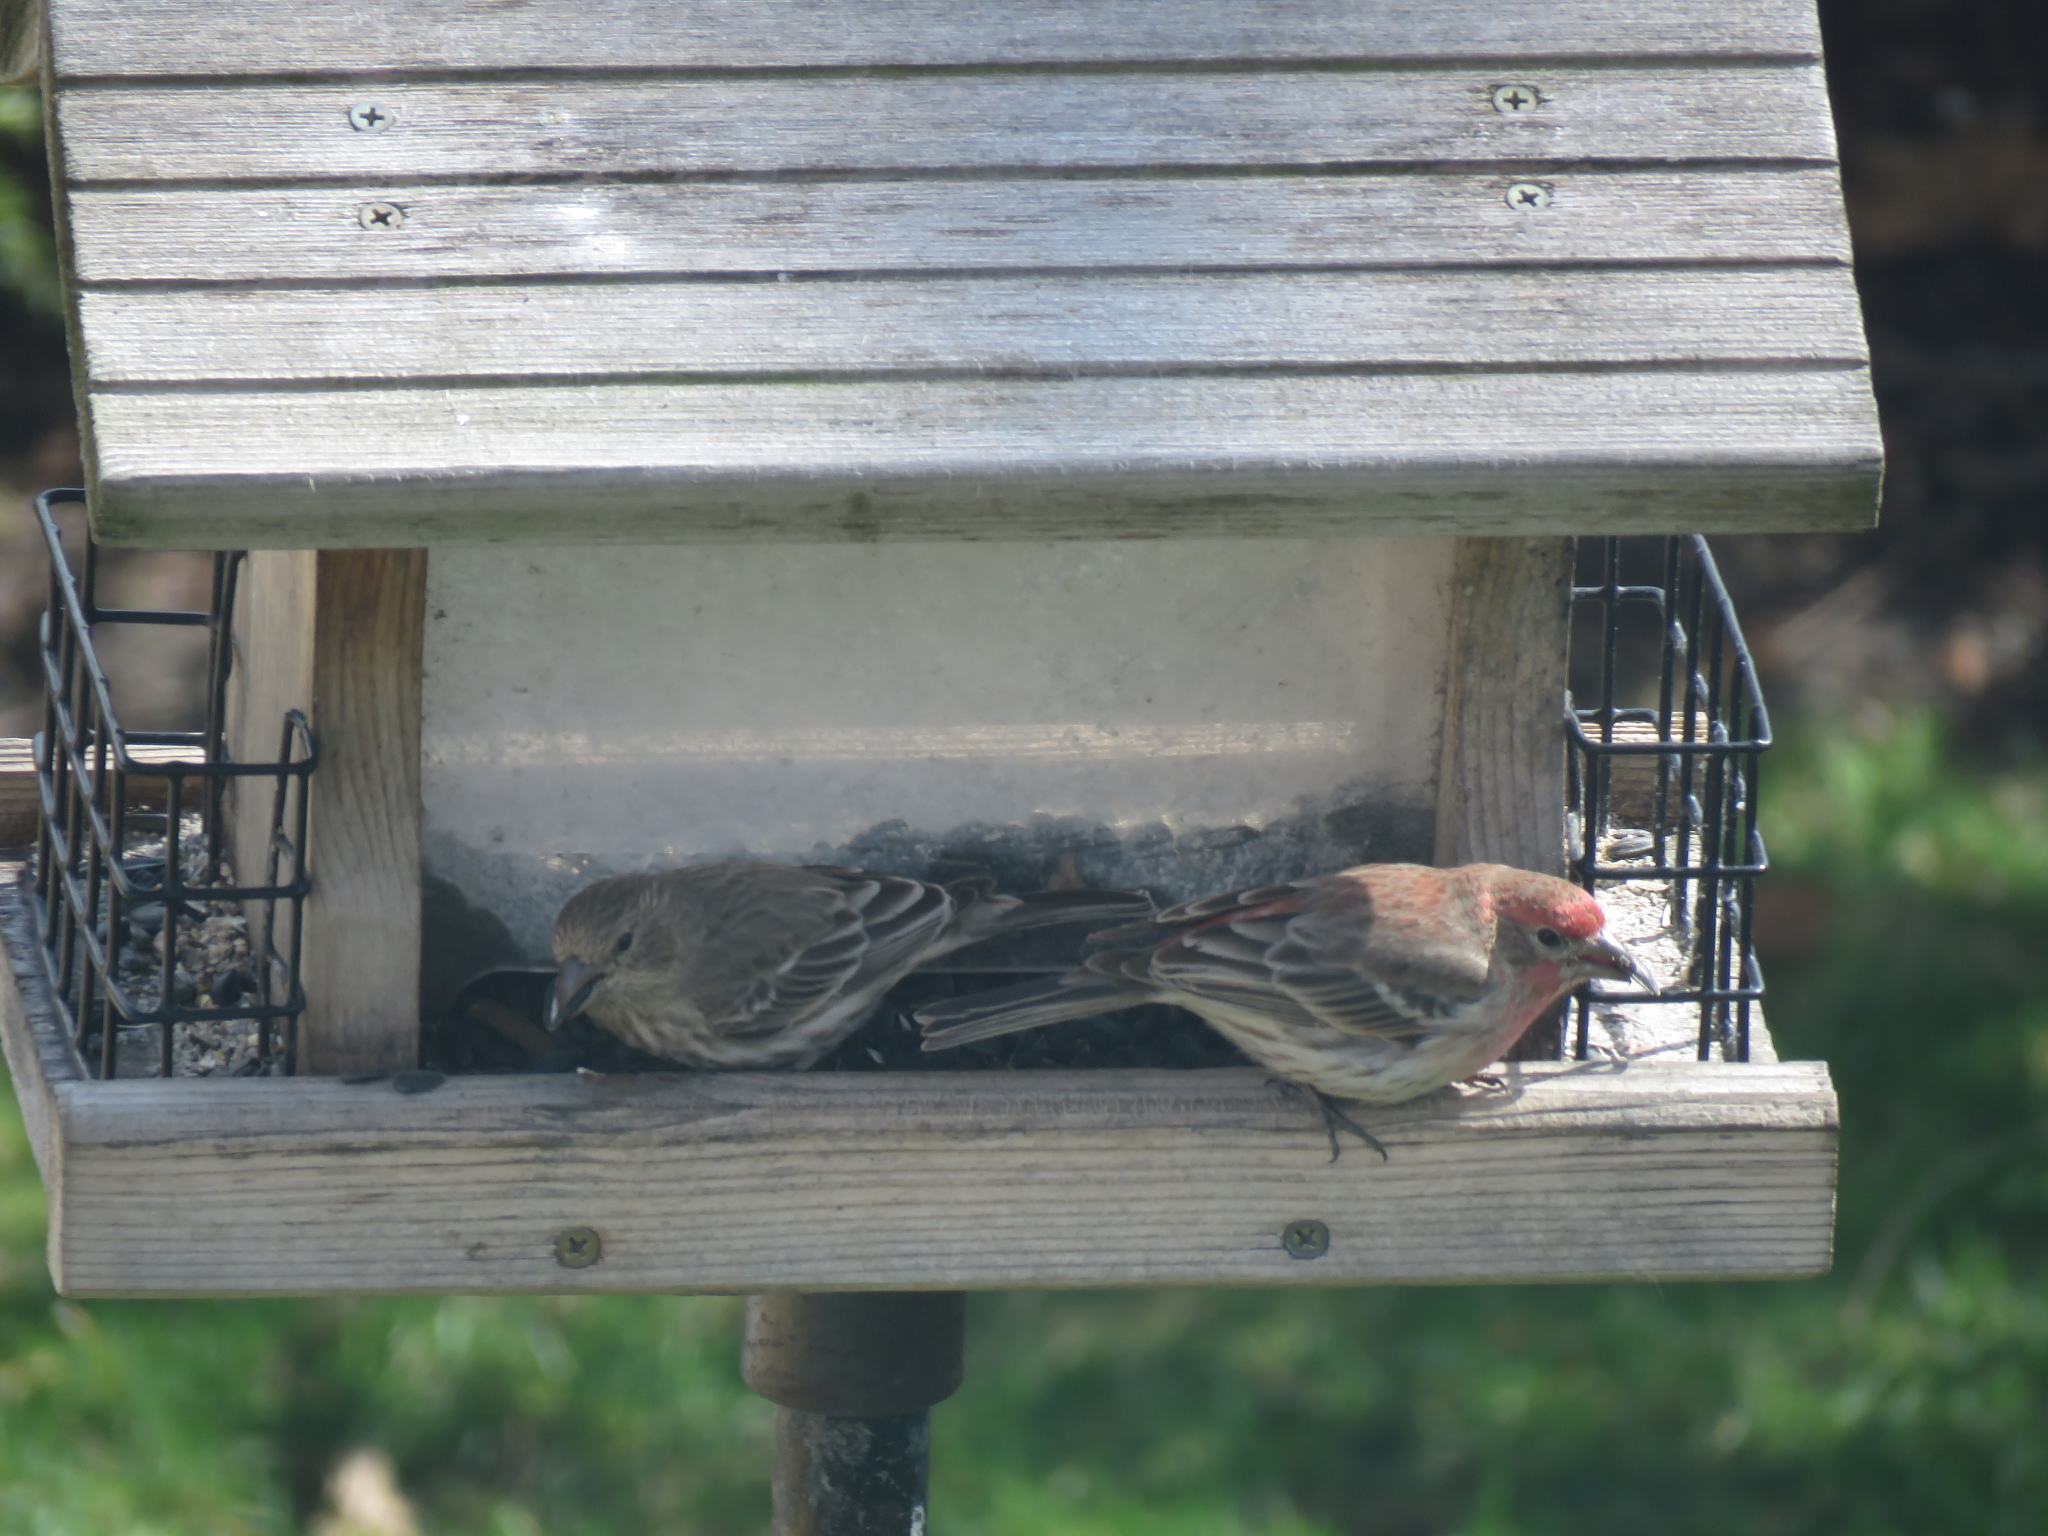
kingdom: Animalia
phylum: Chordata
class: Aves
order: Passeriformes
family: Fringillidae
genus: Haemorhous
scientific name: Haemorhous mexicanus
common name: House finch
